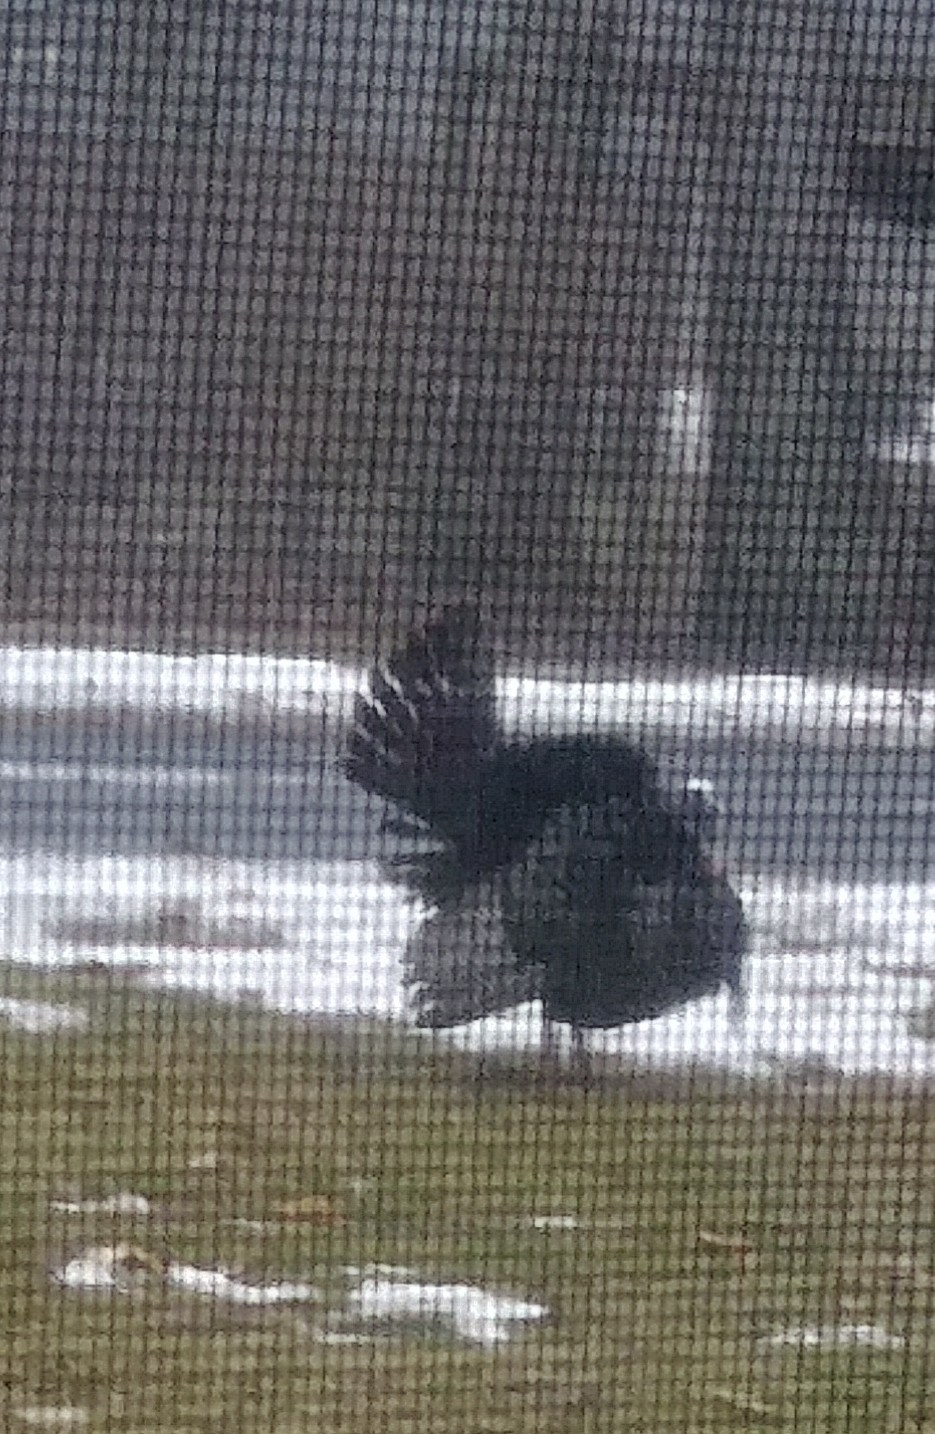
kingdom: Animalia
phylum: Chordata
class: Aves
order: Galliformes
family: Phasianidae
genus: Meleagris
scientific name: Meleagris gallopavo
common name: Wild turkey
